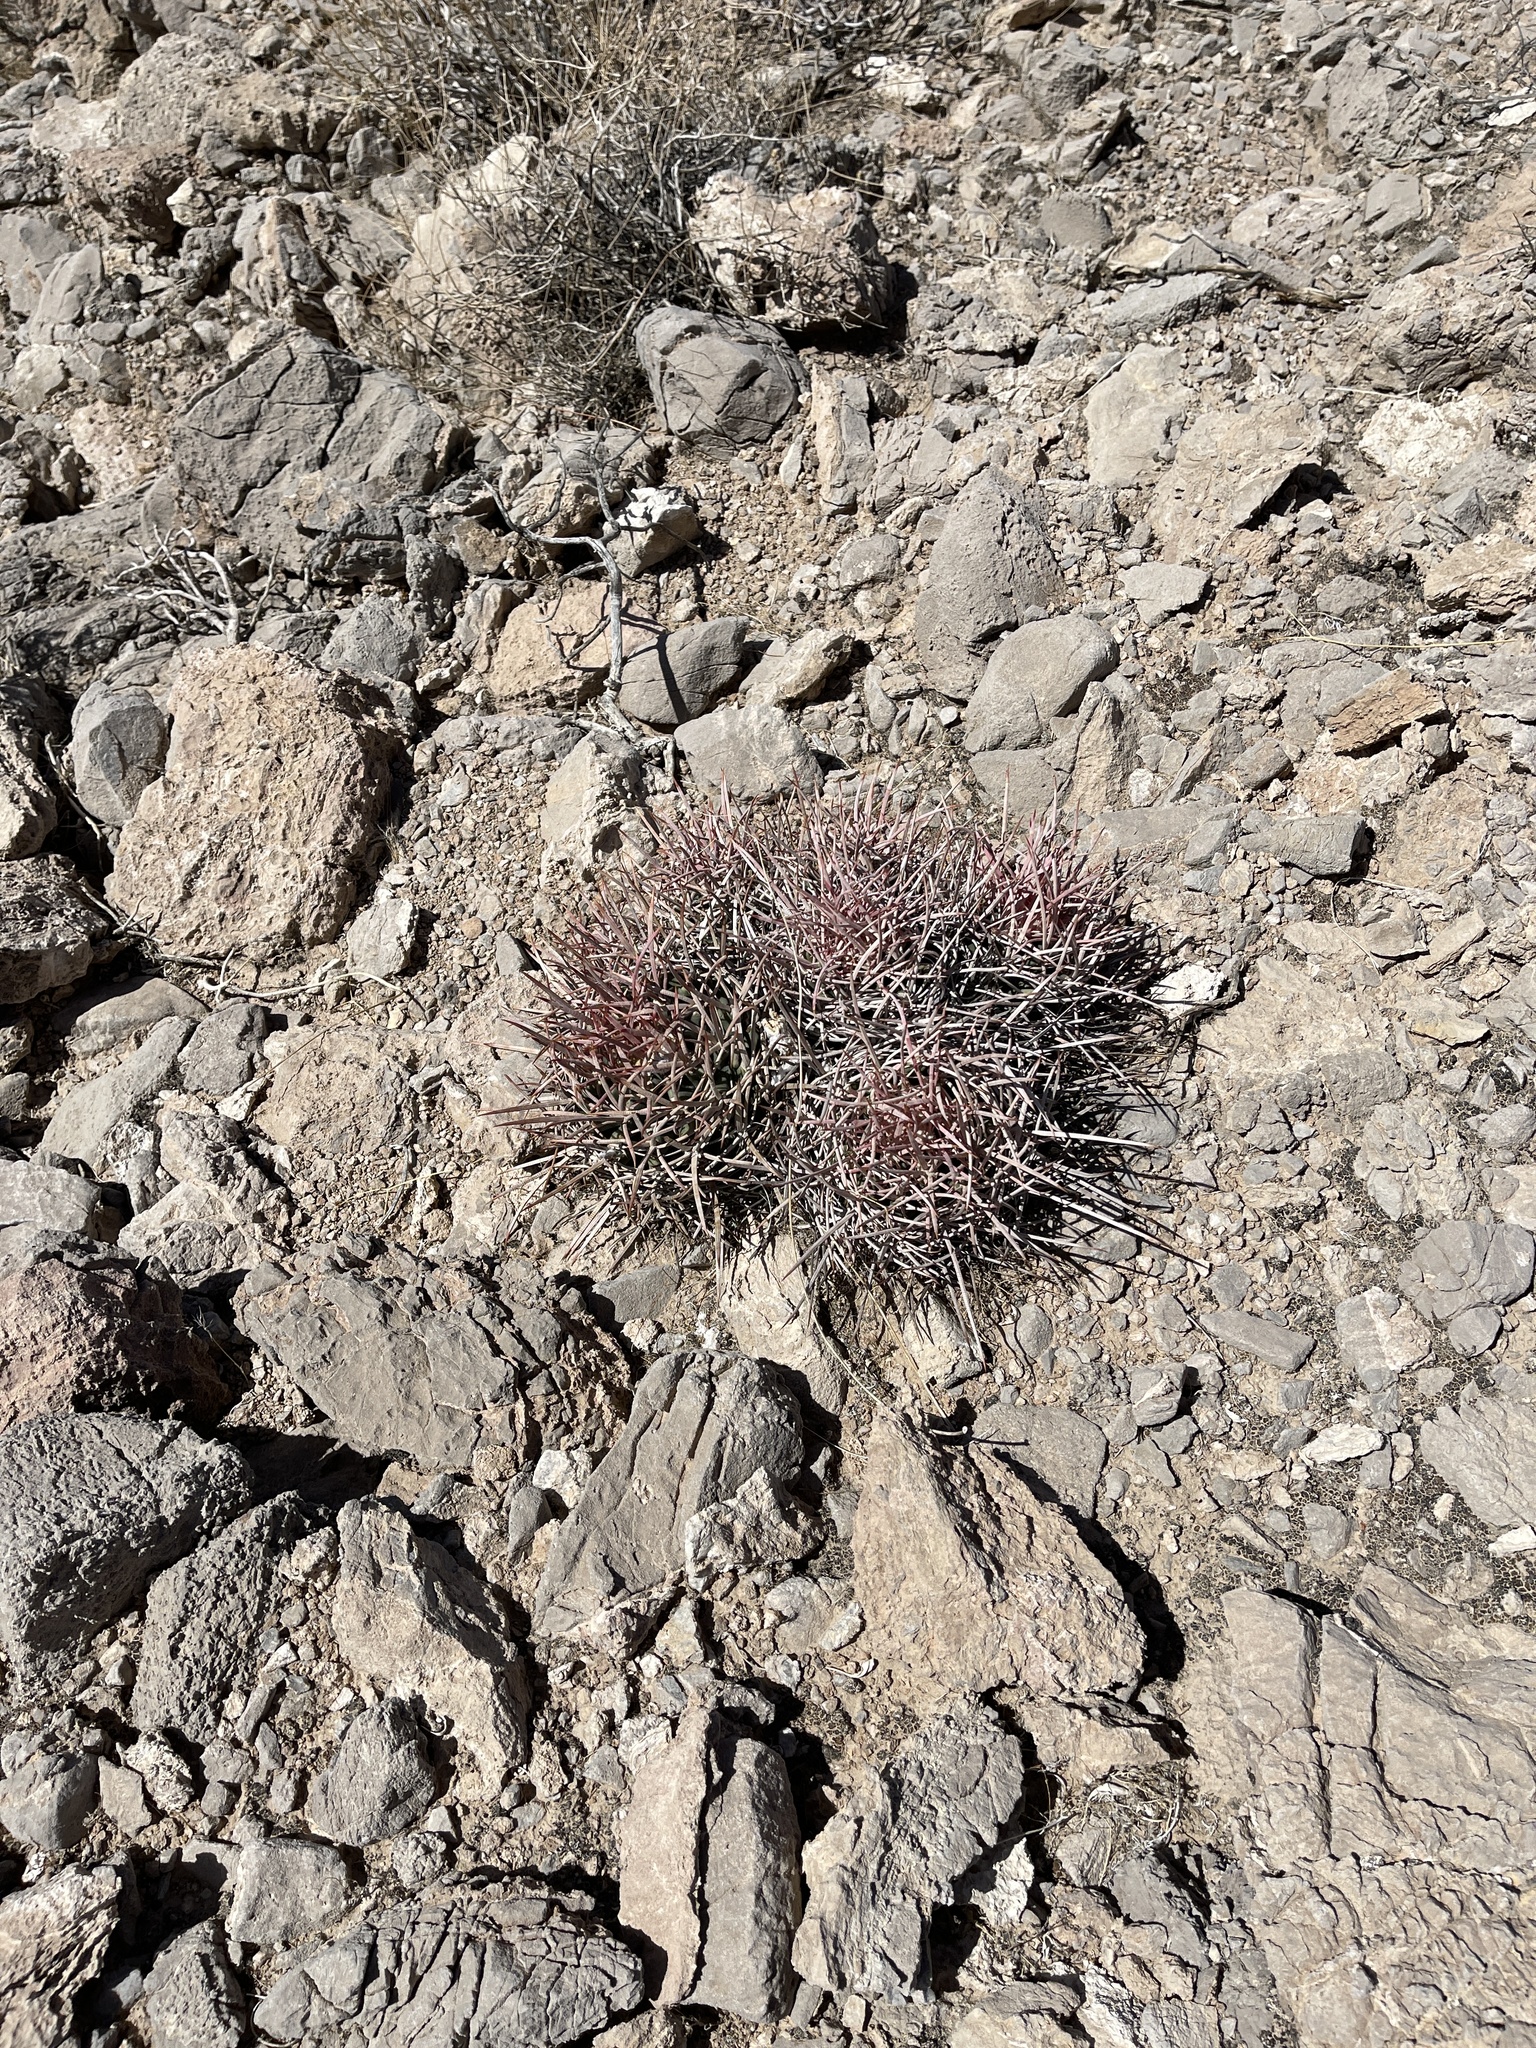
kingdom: Plantae
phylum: Tracheophyta
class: Magnoliopsida
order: Caryophyllales
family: Cactaceae
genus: Echinocactus
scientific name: Echinocactus polycephalus
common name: Cottontop cactus
